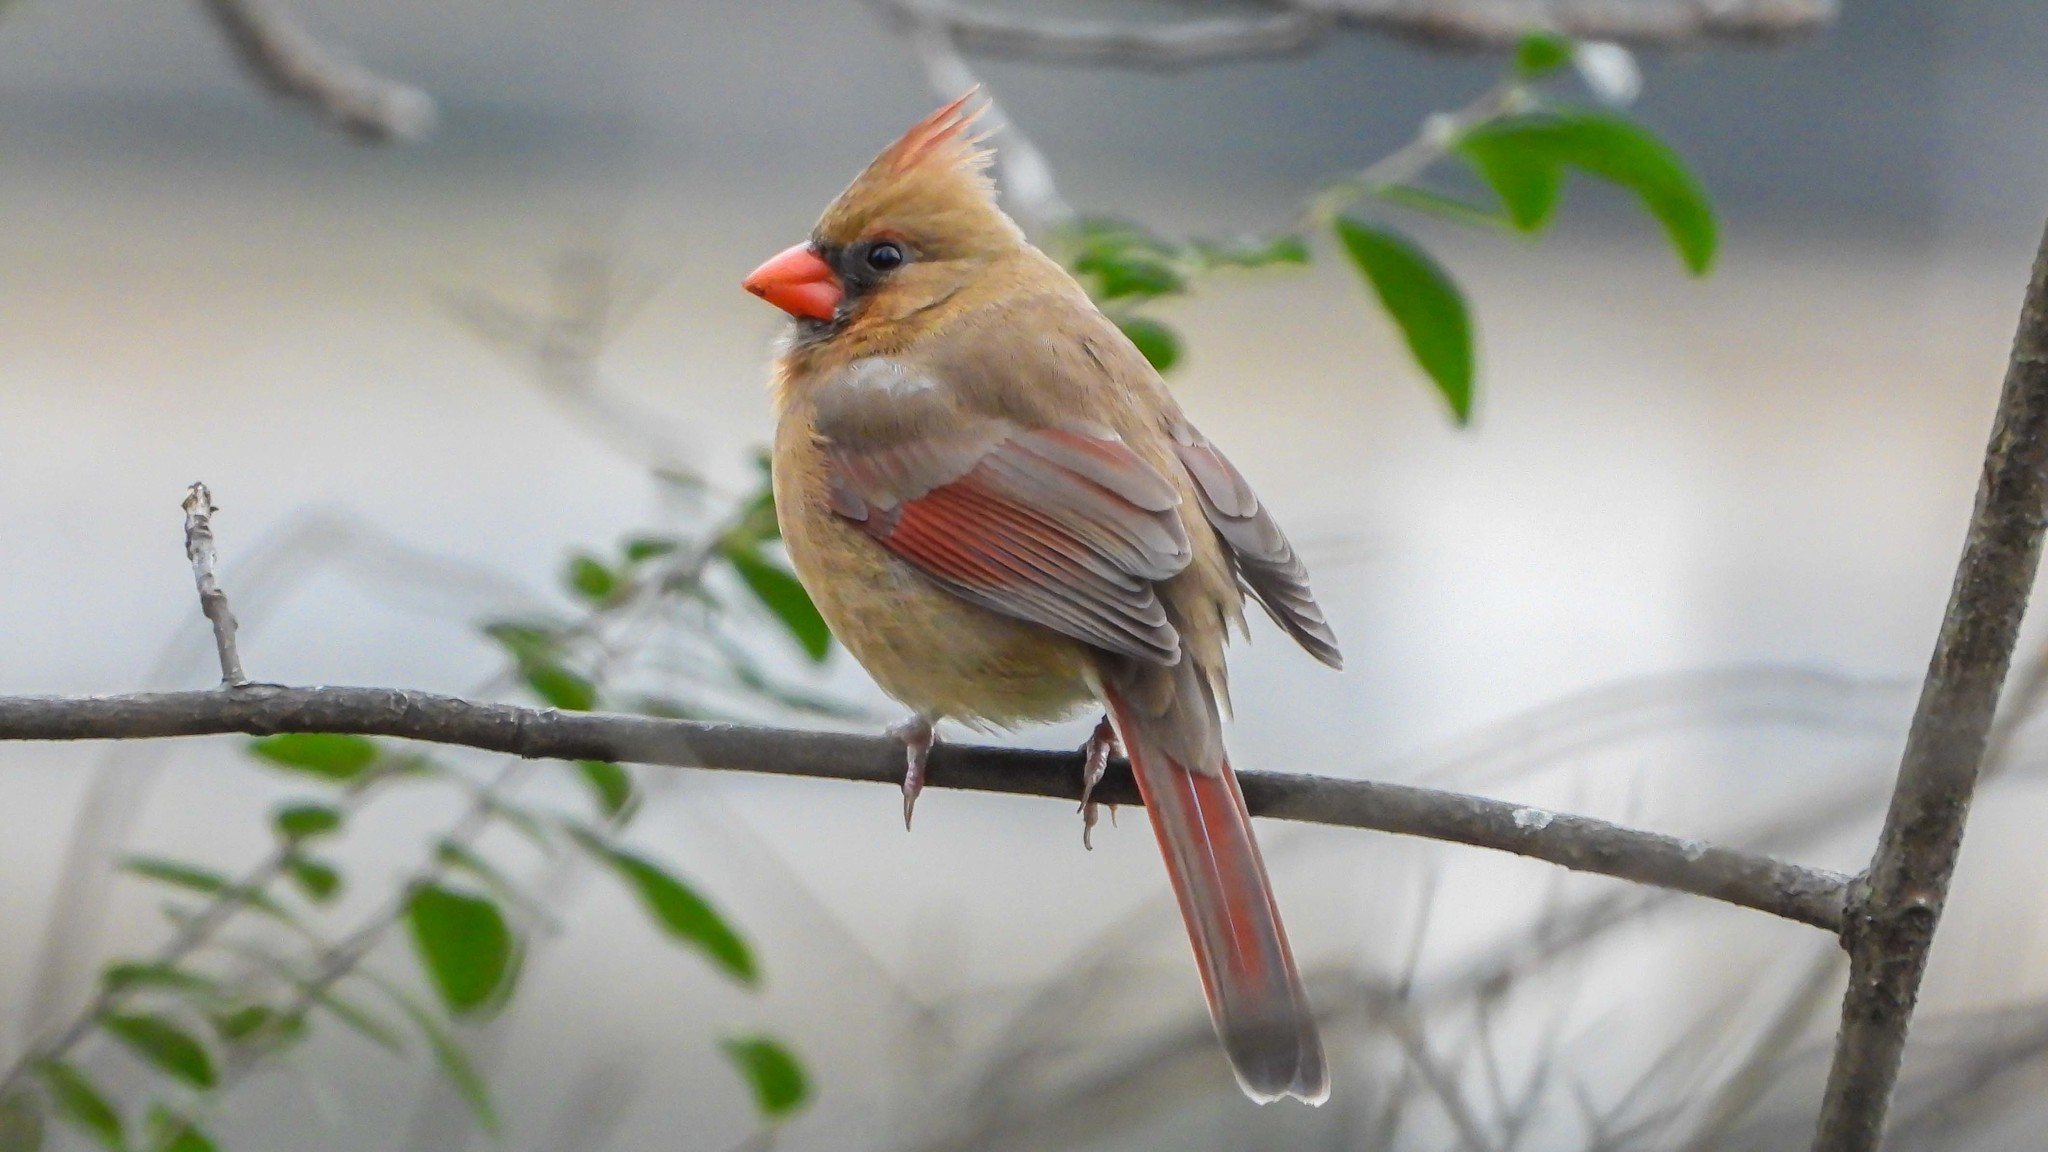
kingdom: Animalia
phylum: Chordata
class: Aves
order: Passeriformes
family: Cardinalidae
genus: Cardinalis
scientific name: Cardinalis cardinalis
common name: Northern cardinal
